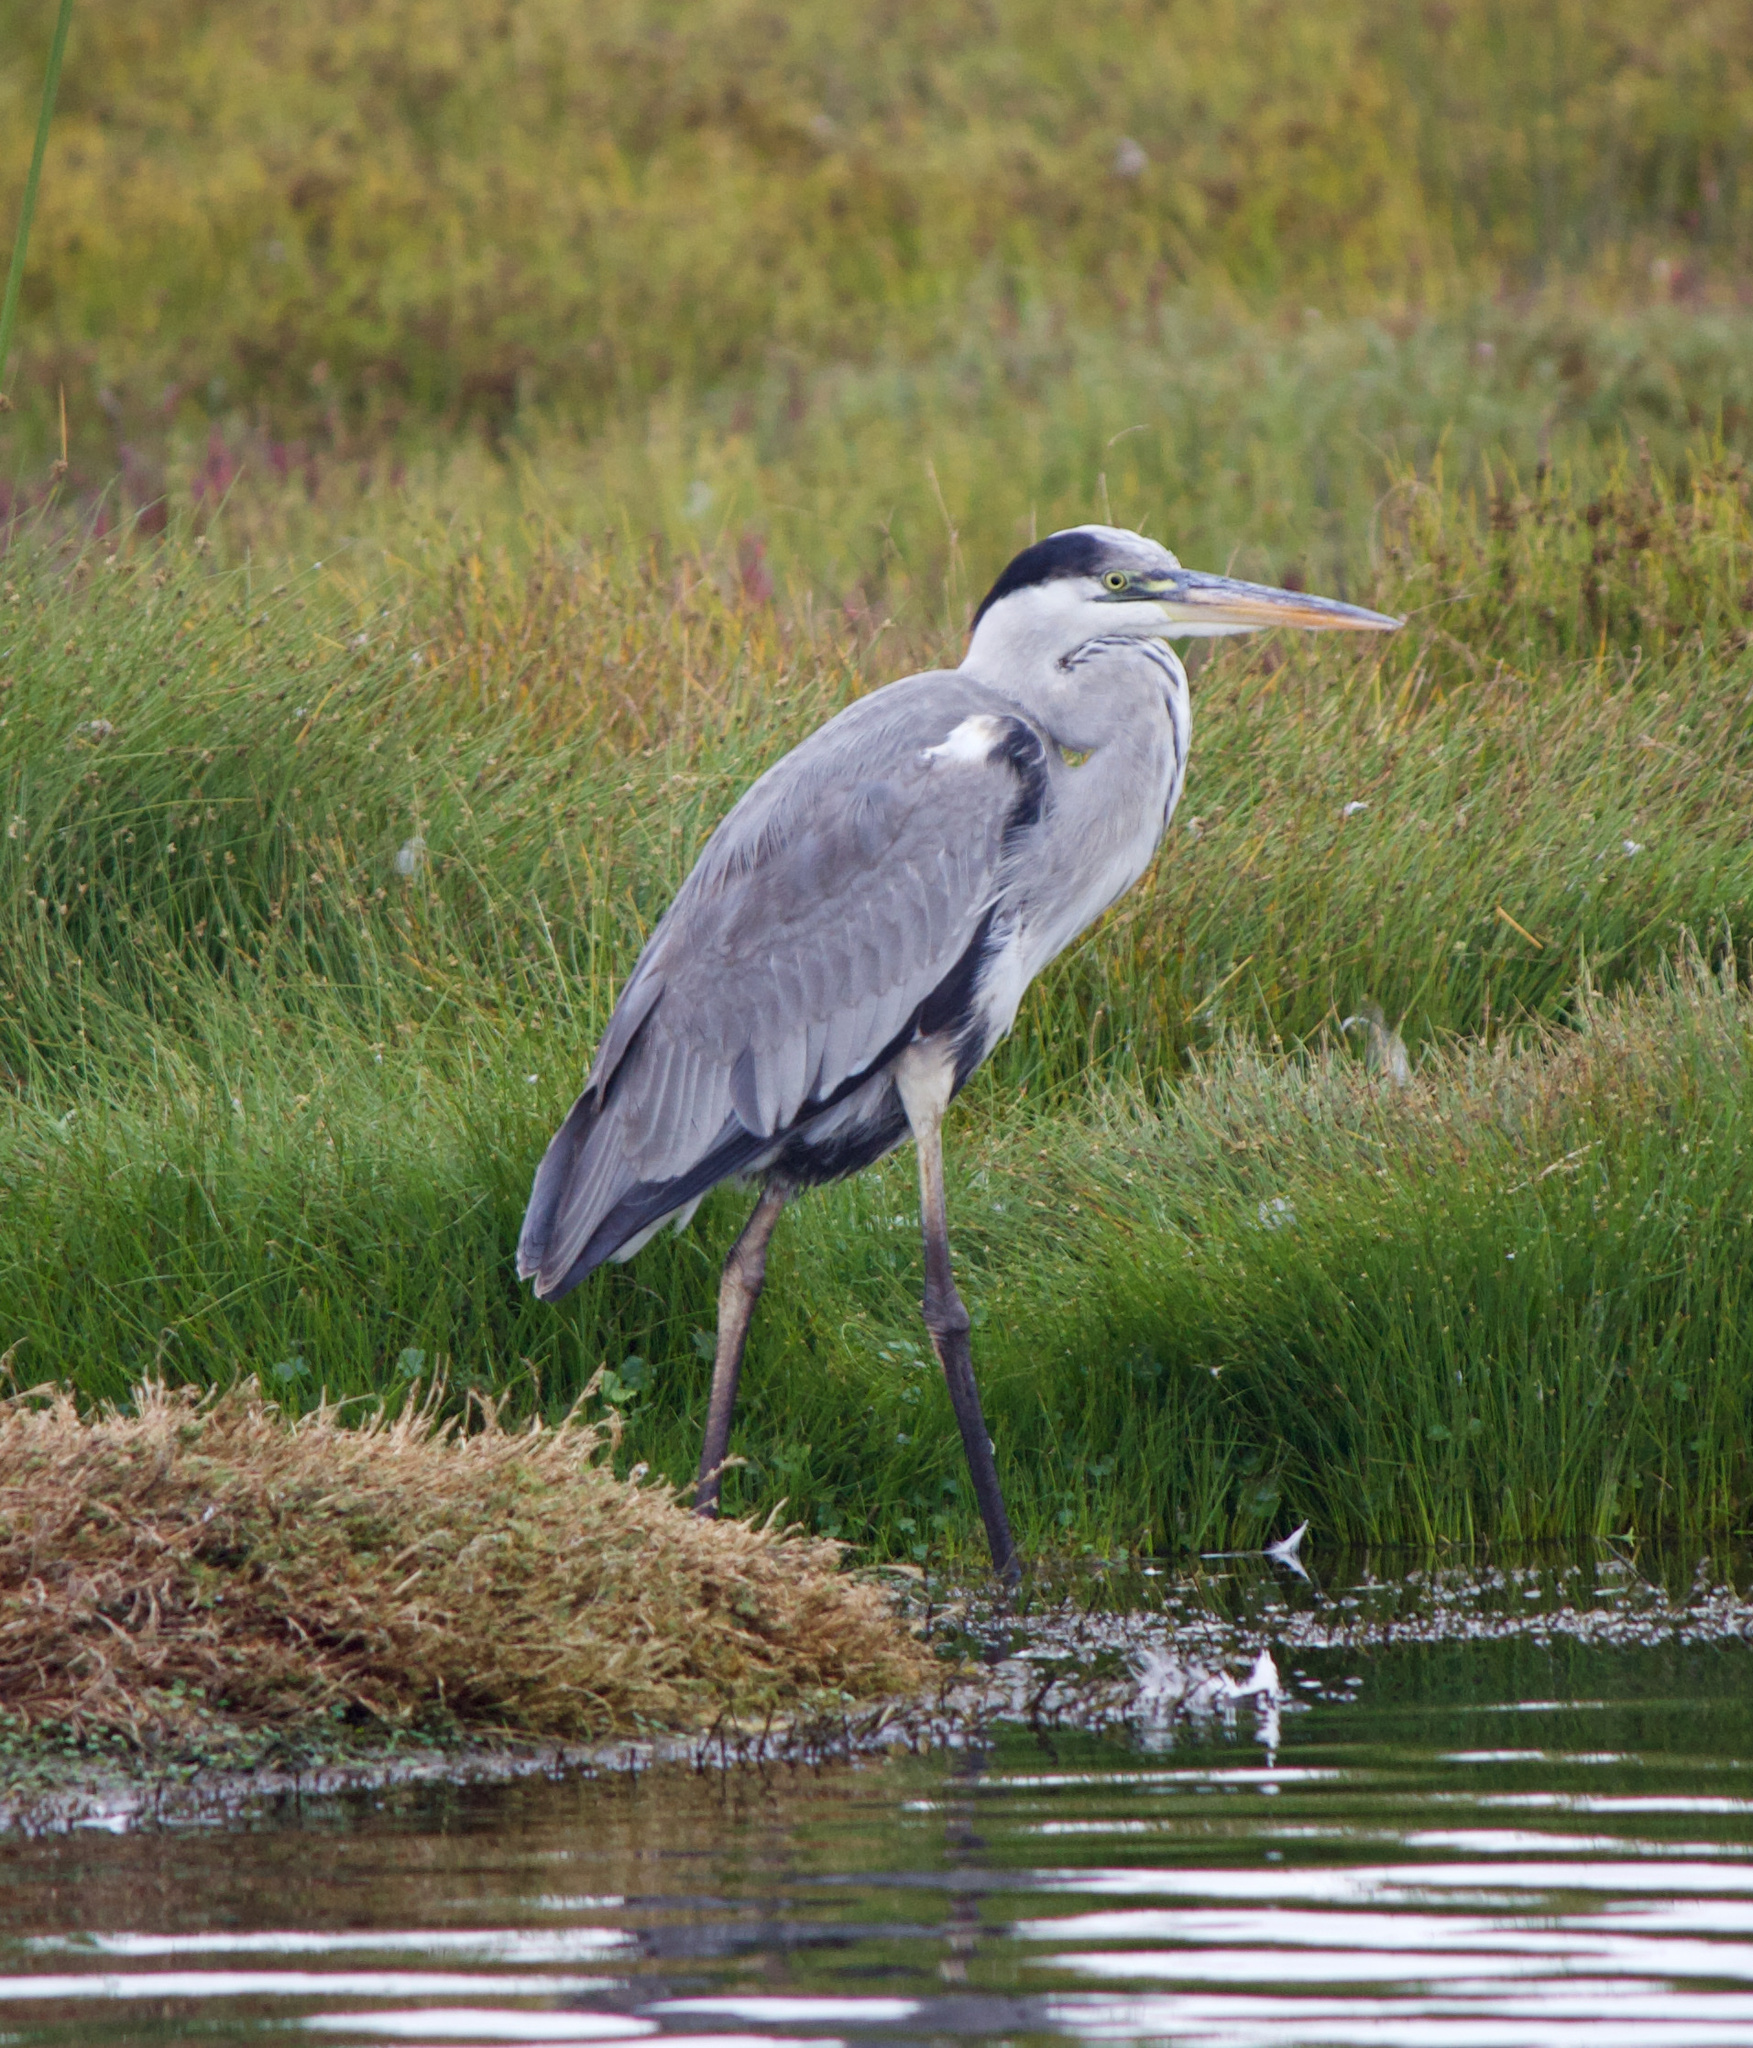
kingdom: Animalia
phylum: Chordata
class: Aves
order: Pelecaniformes
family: Ardeidae
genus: Ardea
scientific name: Ardea cocoi
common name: Cocoi heron
